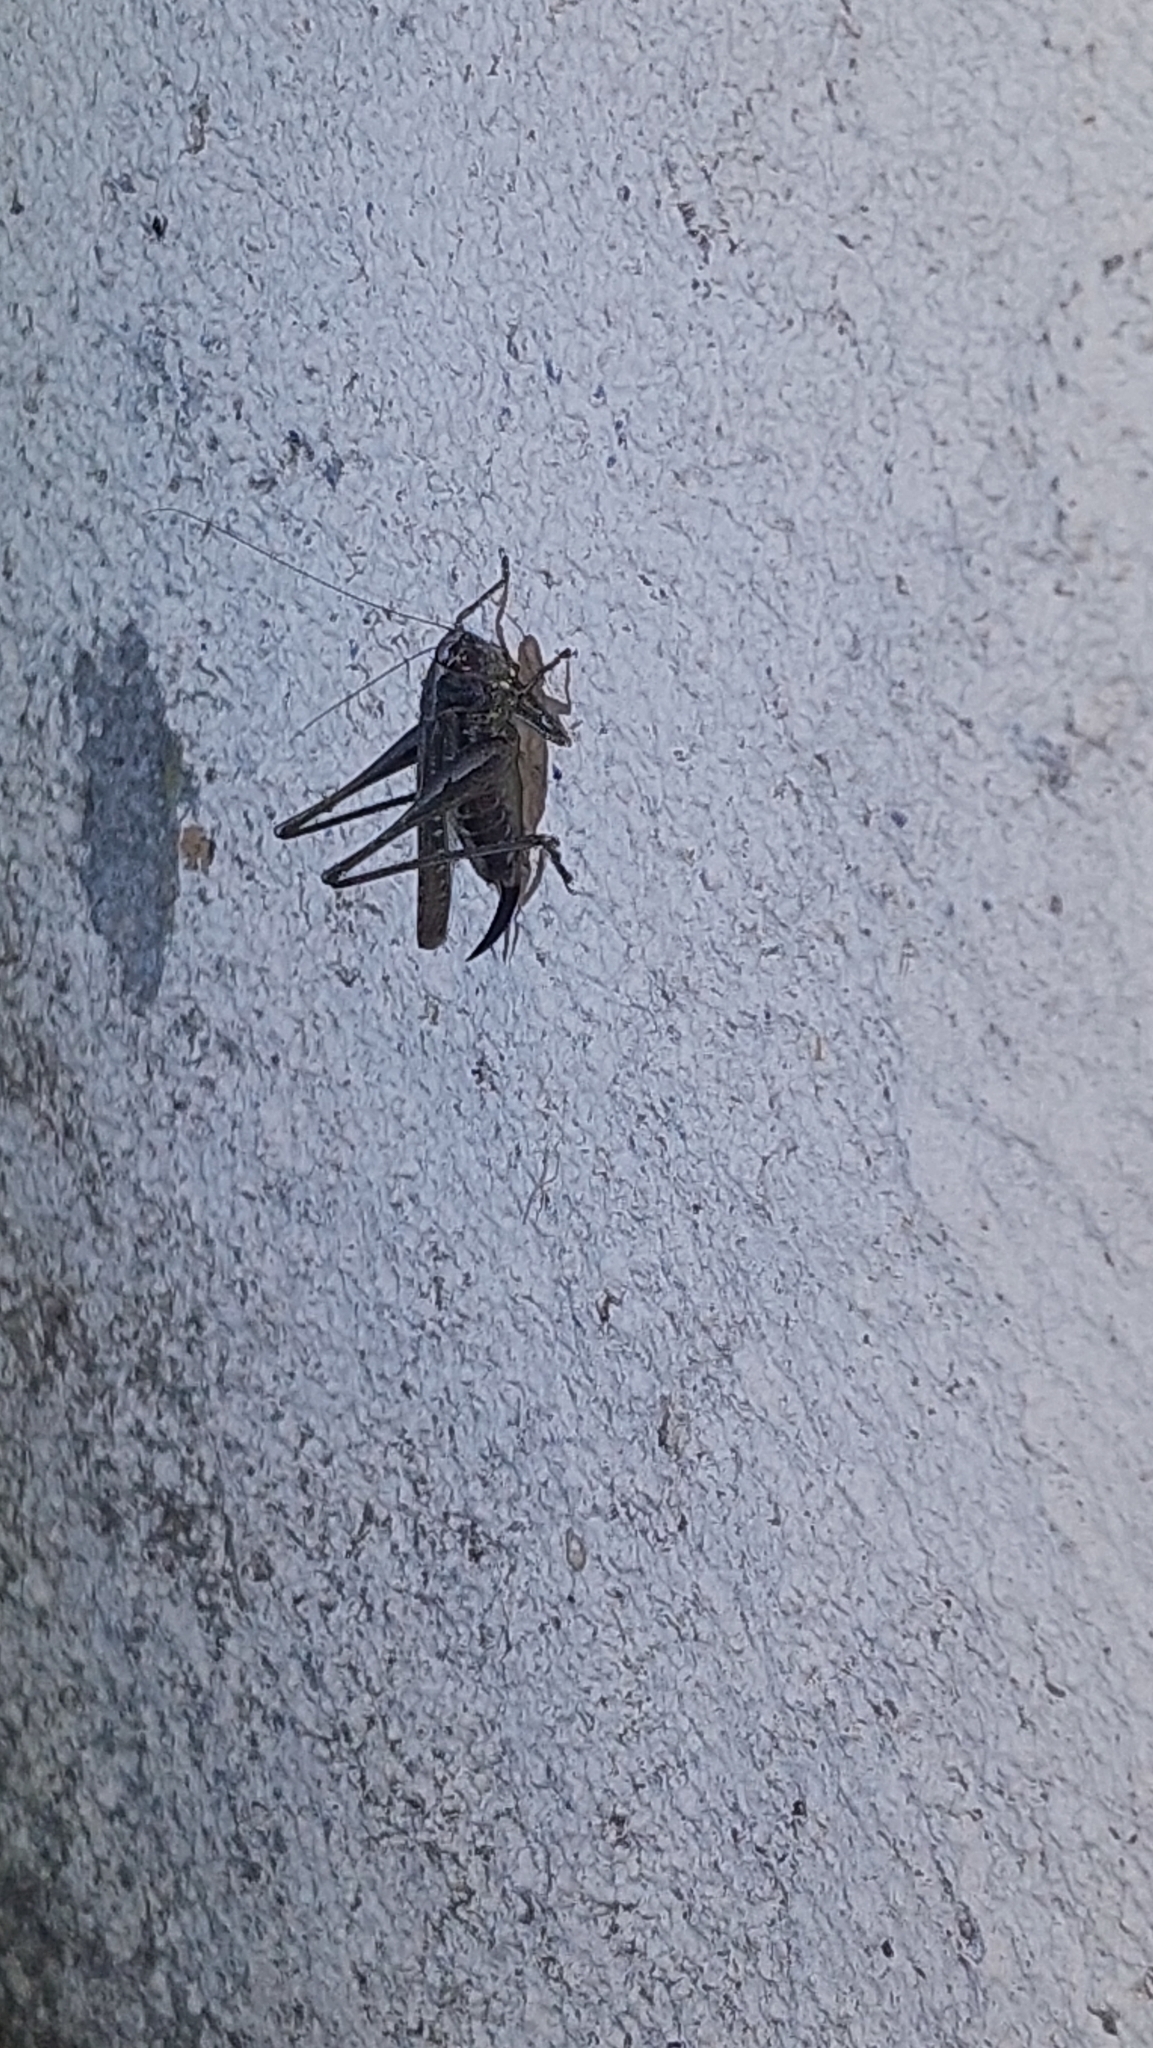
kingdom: Animalia
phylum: Arthropoda
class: Insecta
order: Orthoptera
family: Tettigoniidae
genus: Platycleis
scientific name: Platycleis albopunctata
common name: Grey bush-cricket
